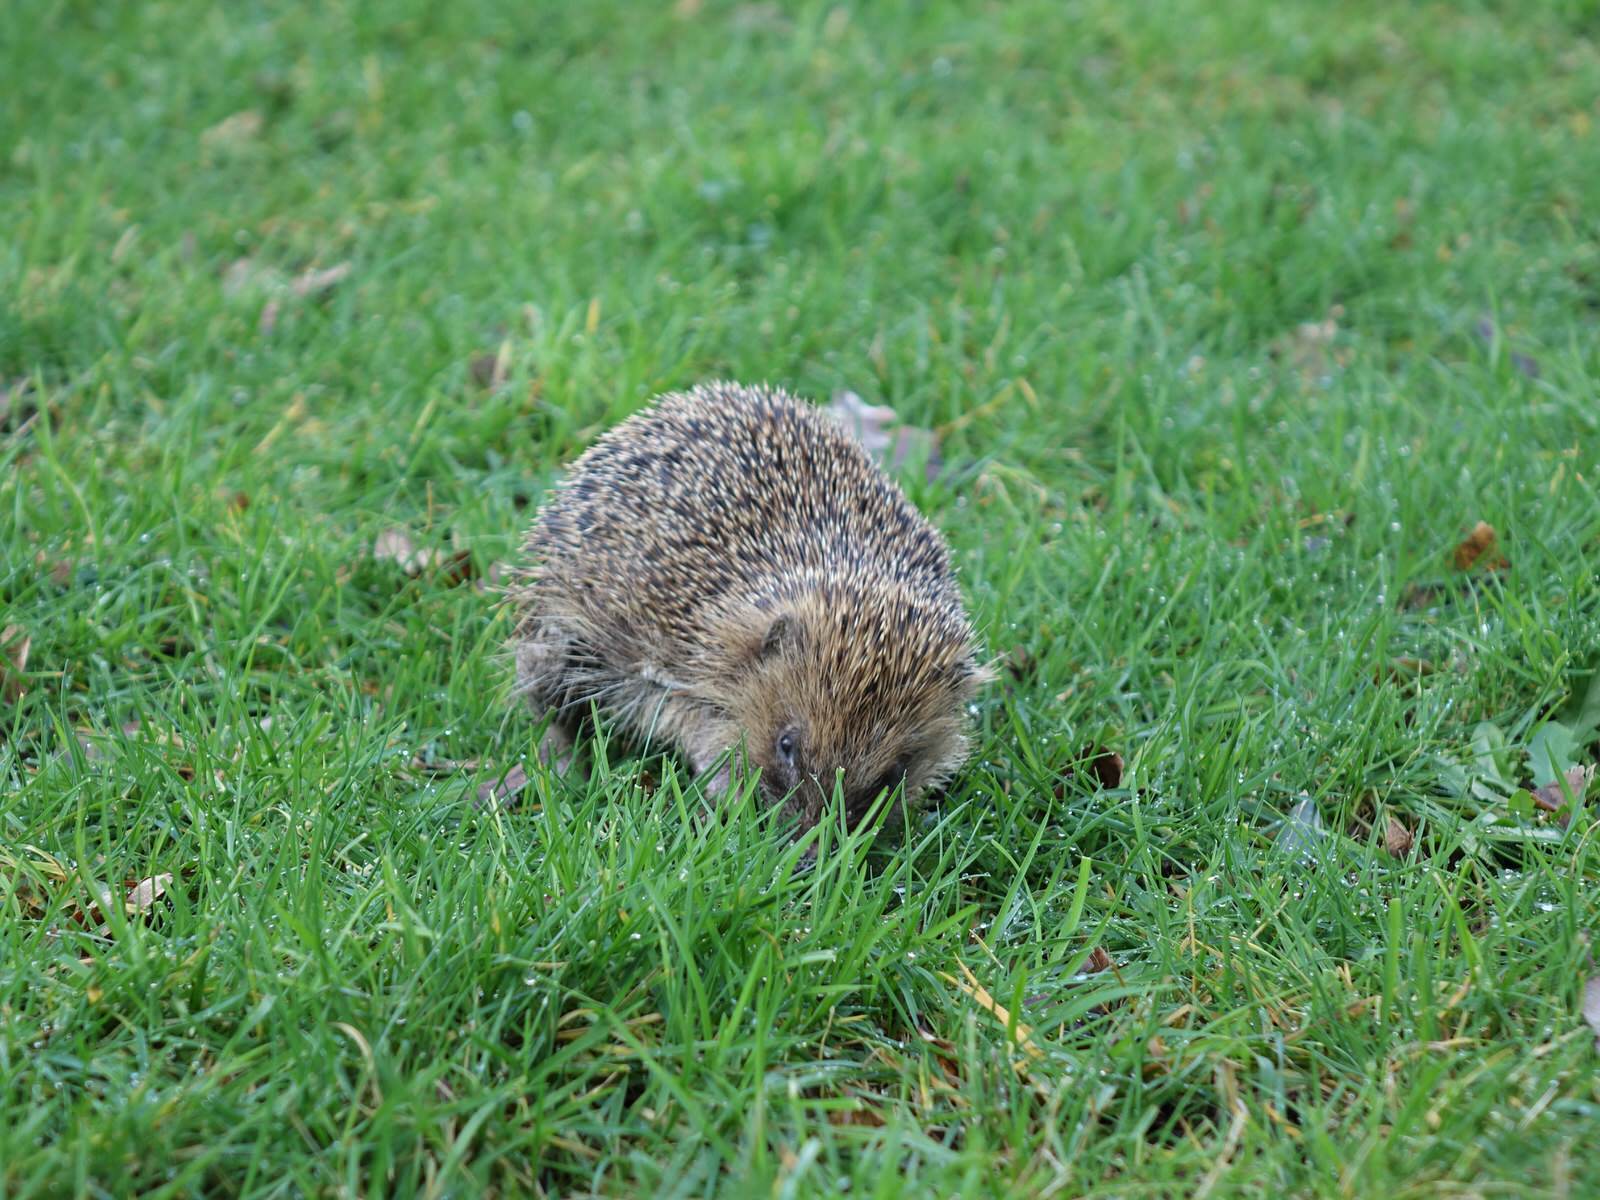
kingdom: Animalia
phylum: Chordata
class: Mammalia
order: Erinaceomorpha
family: Erinaceidae
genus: Erinaceus
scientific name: Erinaceus europaeus
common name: West european hedgehog
